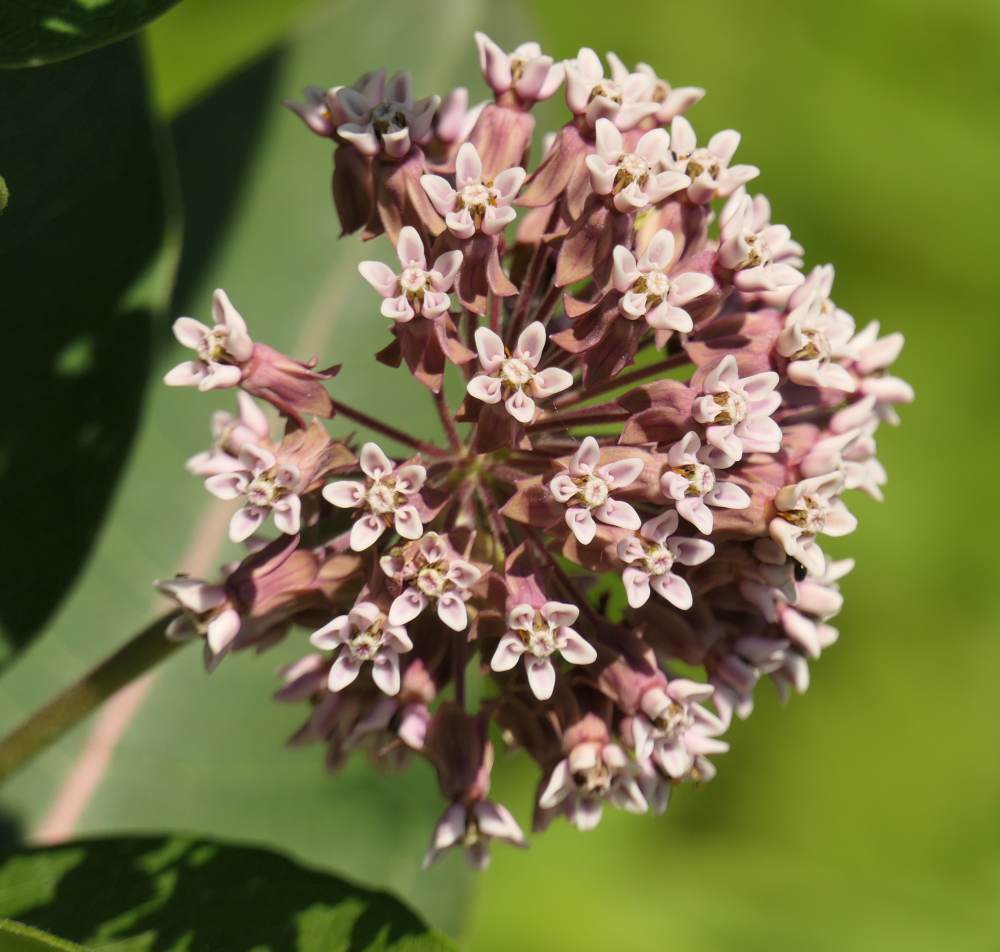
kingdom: Plantae
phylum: Tracheophyta
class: Magnoliopsida
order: Gentianales
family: Apocynaceae
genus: Asclepias
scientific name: Asclepias syriaca
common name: Common milkweed
